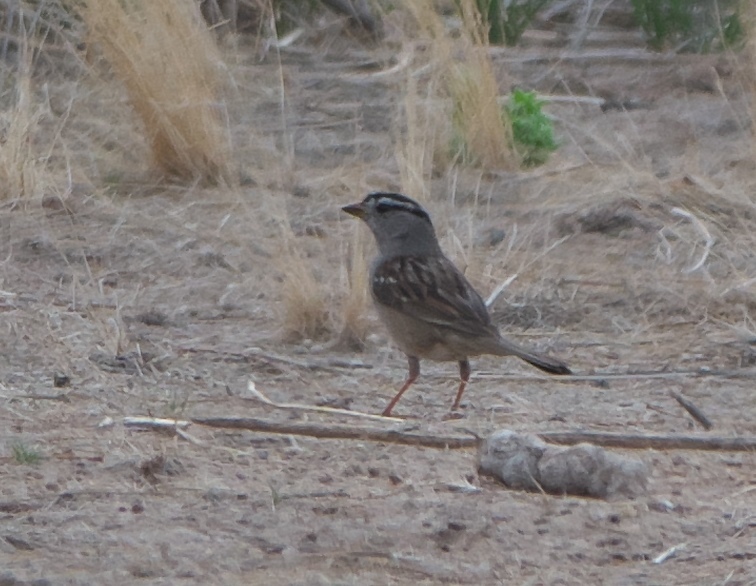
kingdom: Animalia
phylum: Chordata
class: Aves
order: Passeriformes
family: Passerellidae
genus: Zonotrichia
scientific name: Zonotrichia leucophrys
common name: White-crowned sparrow
